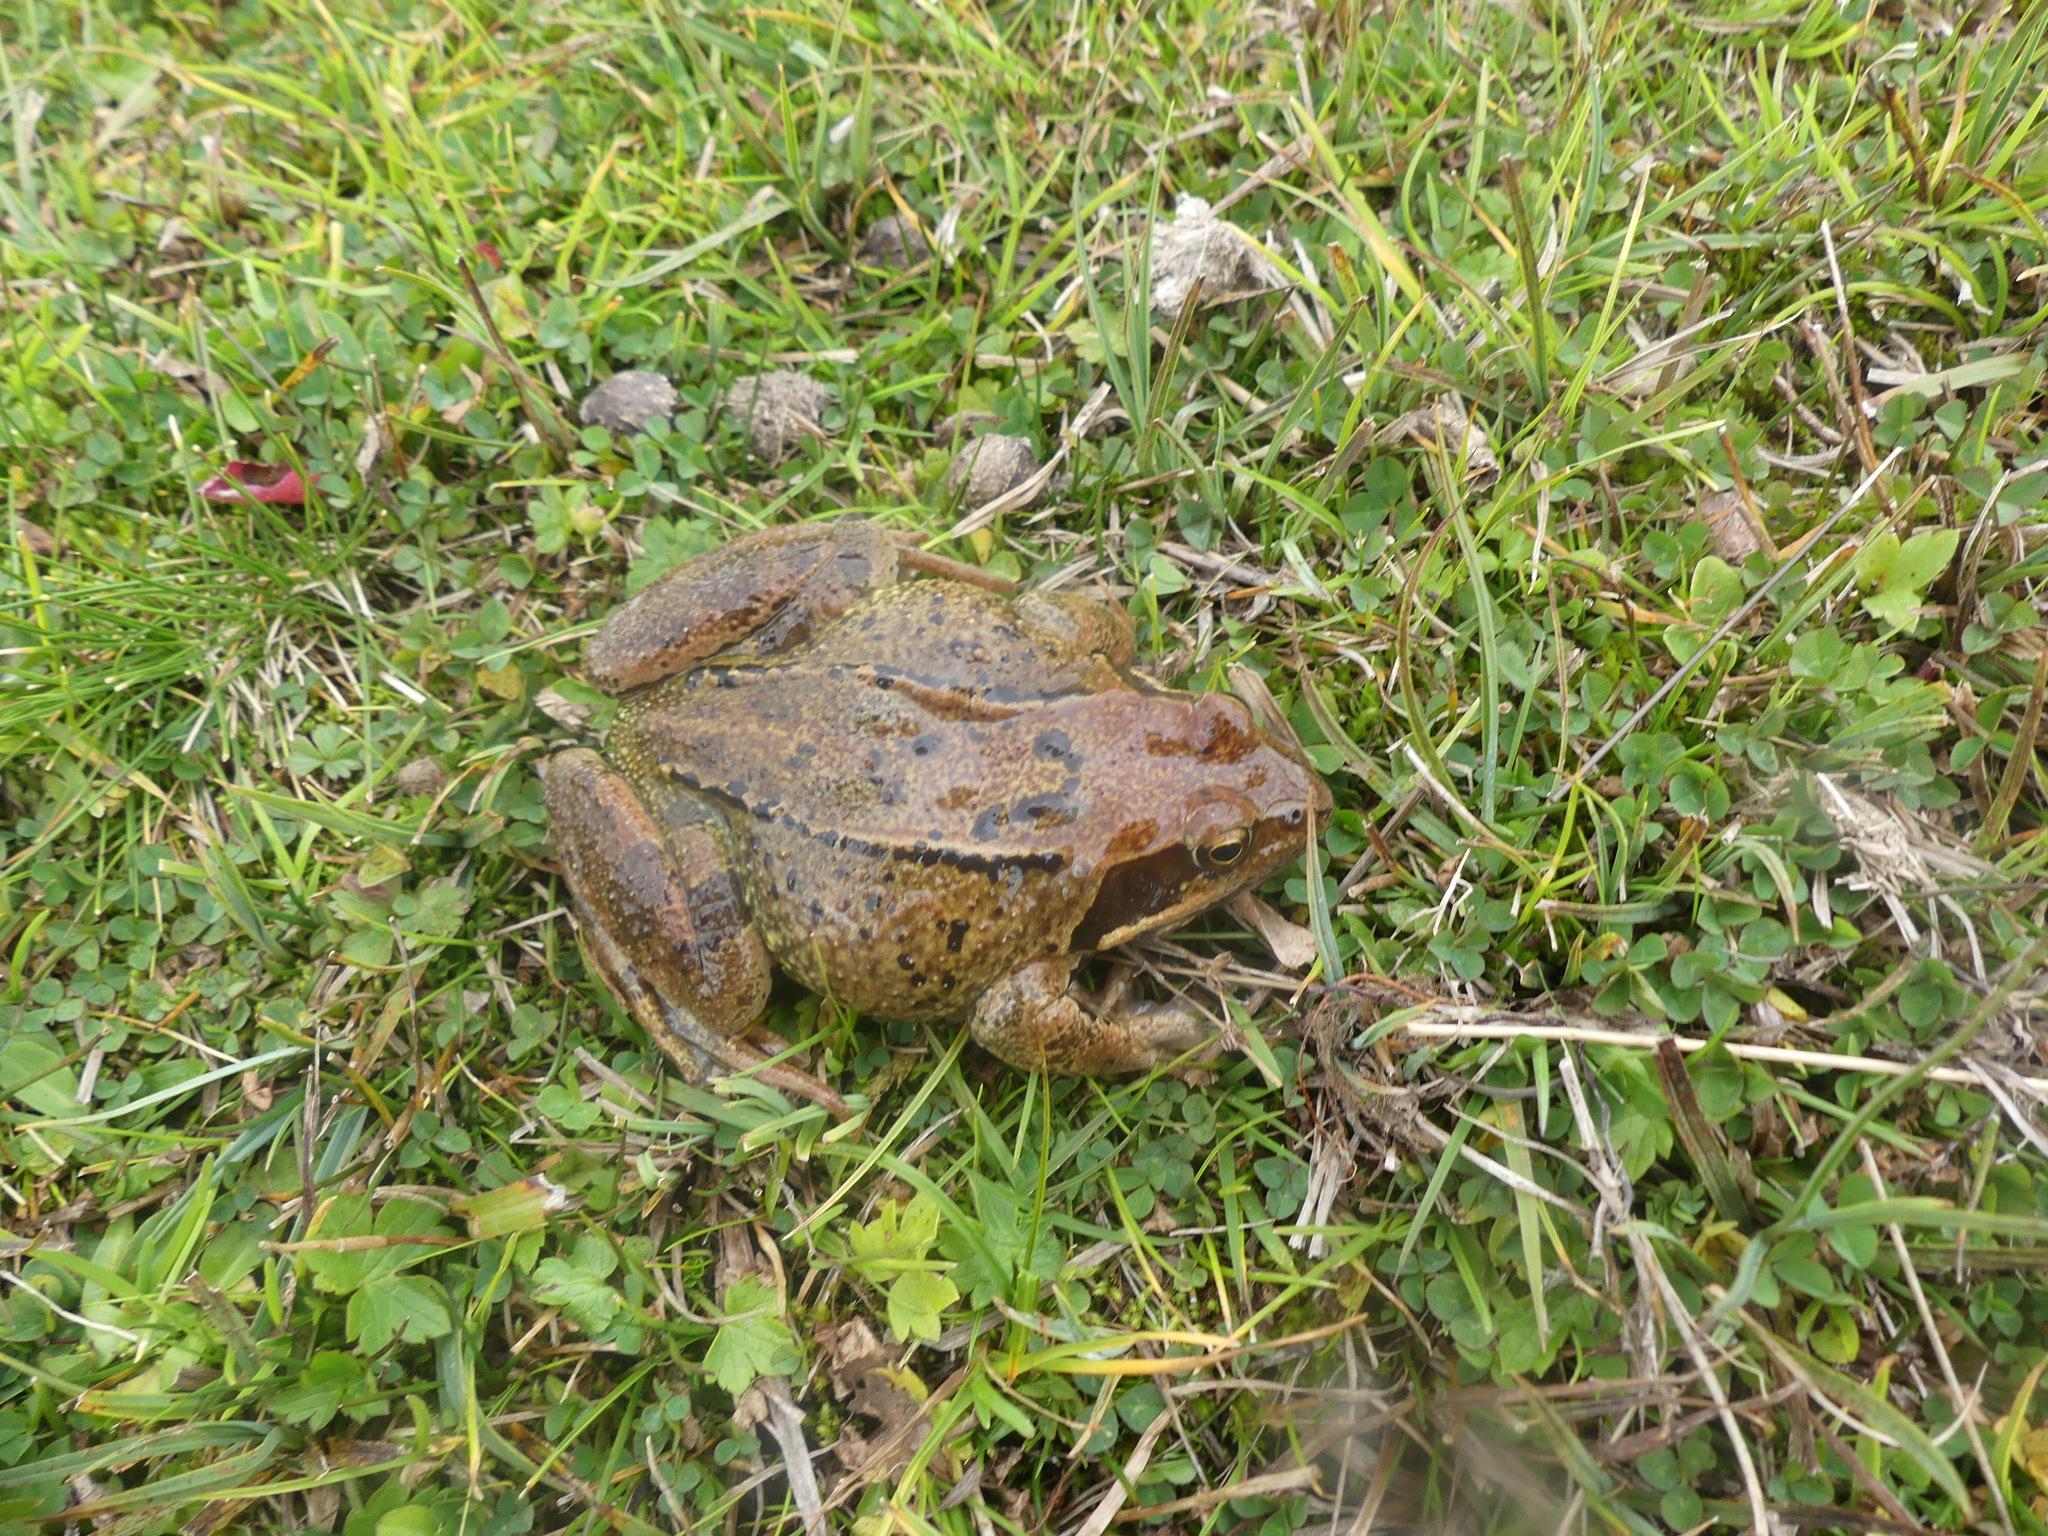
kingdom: Animalia
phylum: Chordata
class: Amphibia
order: Anura
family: Ranidae
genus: Rana
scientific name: Rana temporaria
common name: Common frog
